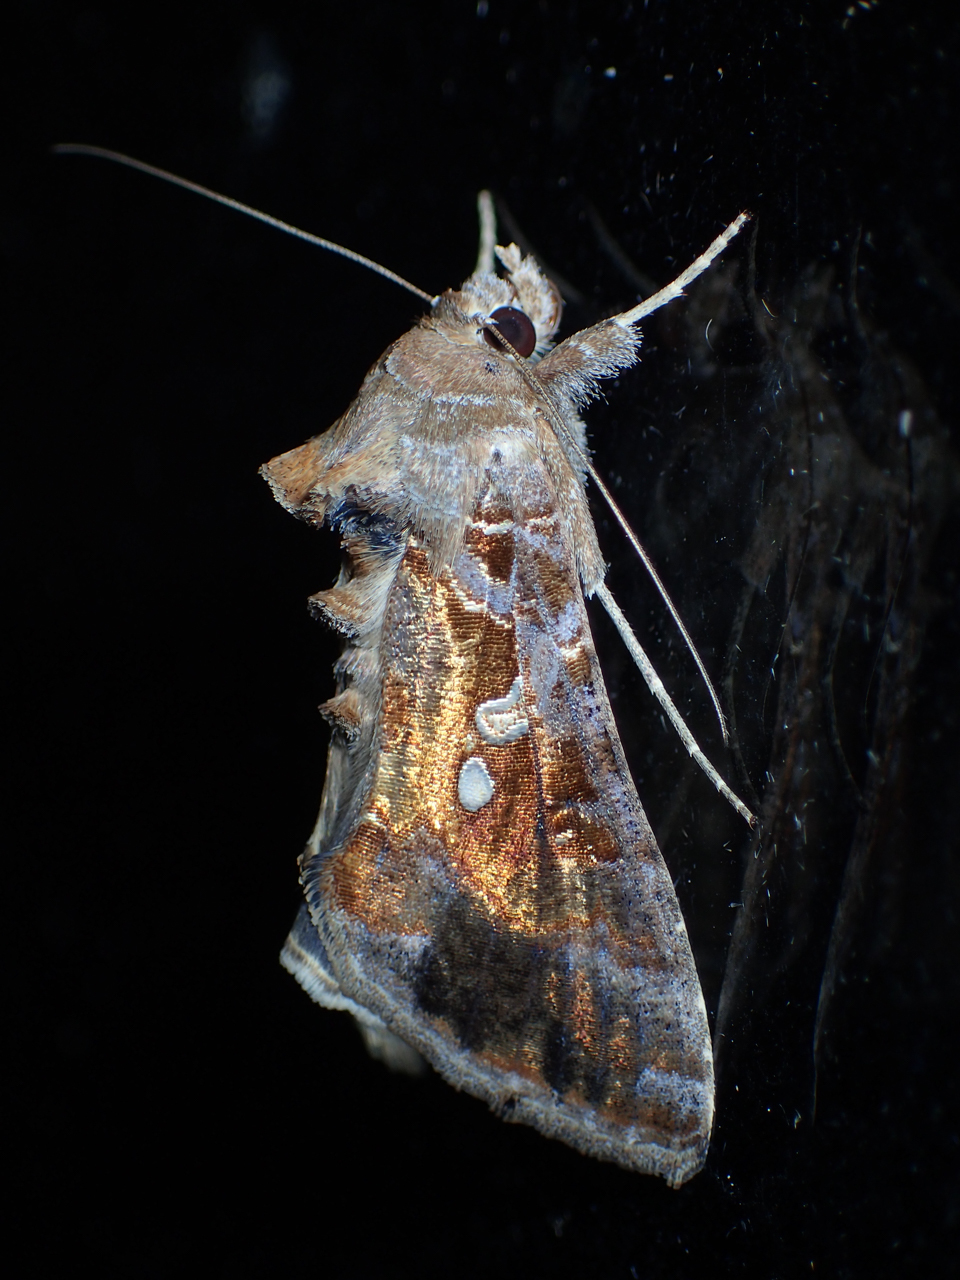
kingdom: Animalia
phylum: Arthropoda
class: Insecta
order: Lepidoptera
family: Noctuidae
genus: Chrysodeixis
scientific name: Chrysodeixis includens
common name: Cutworm moth
